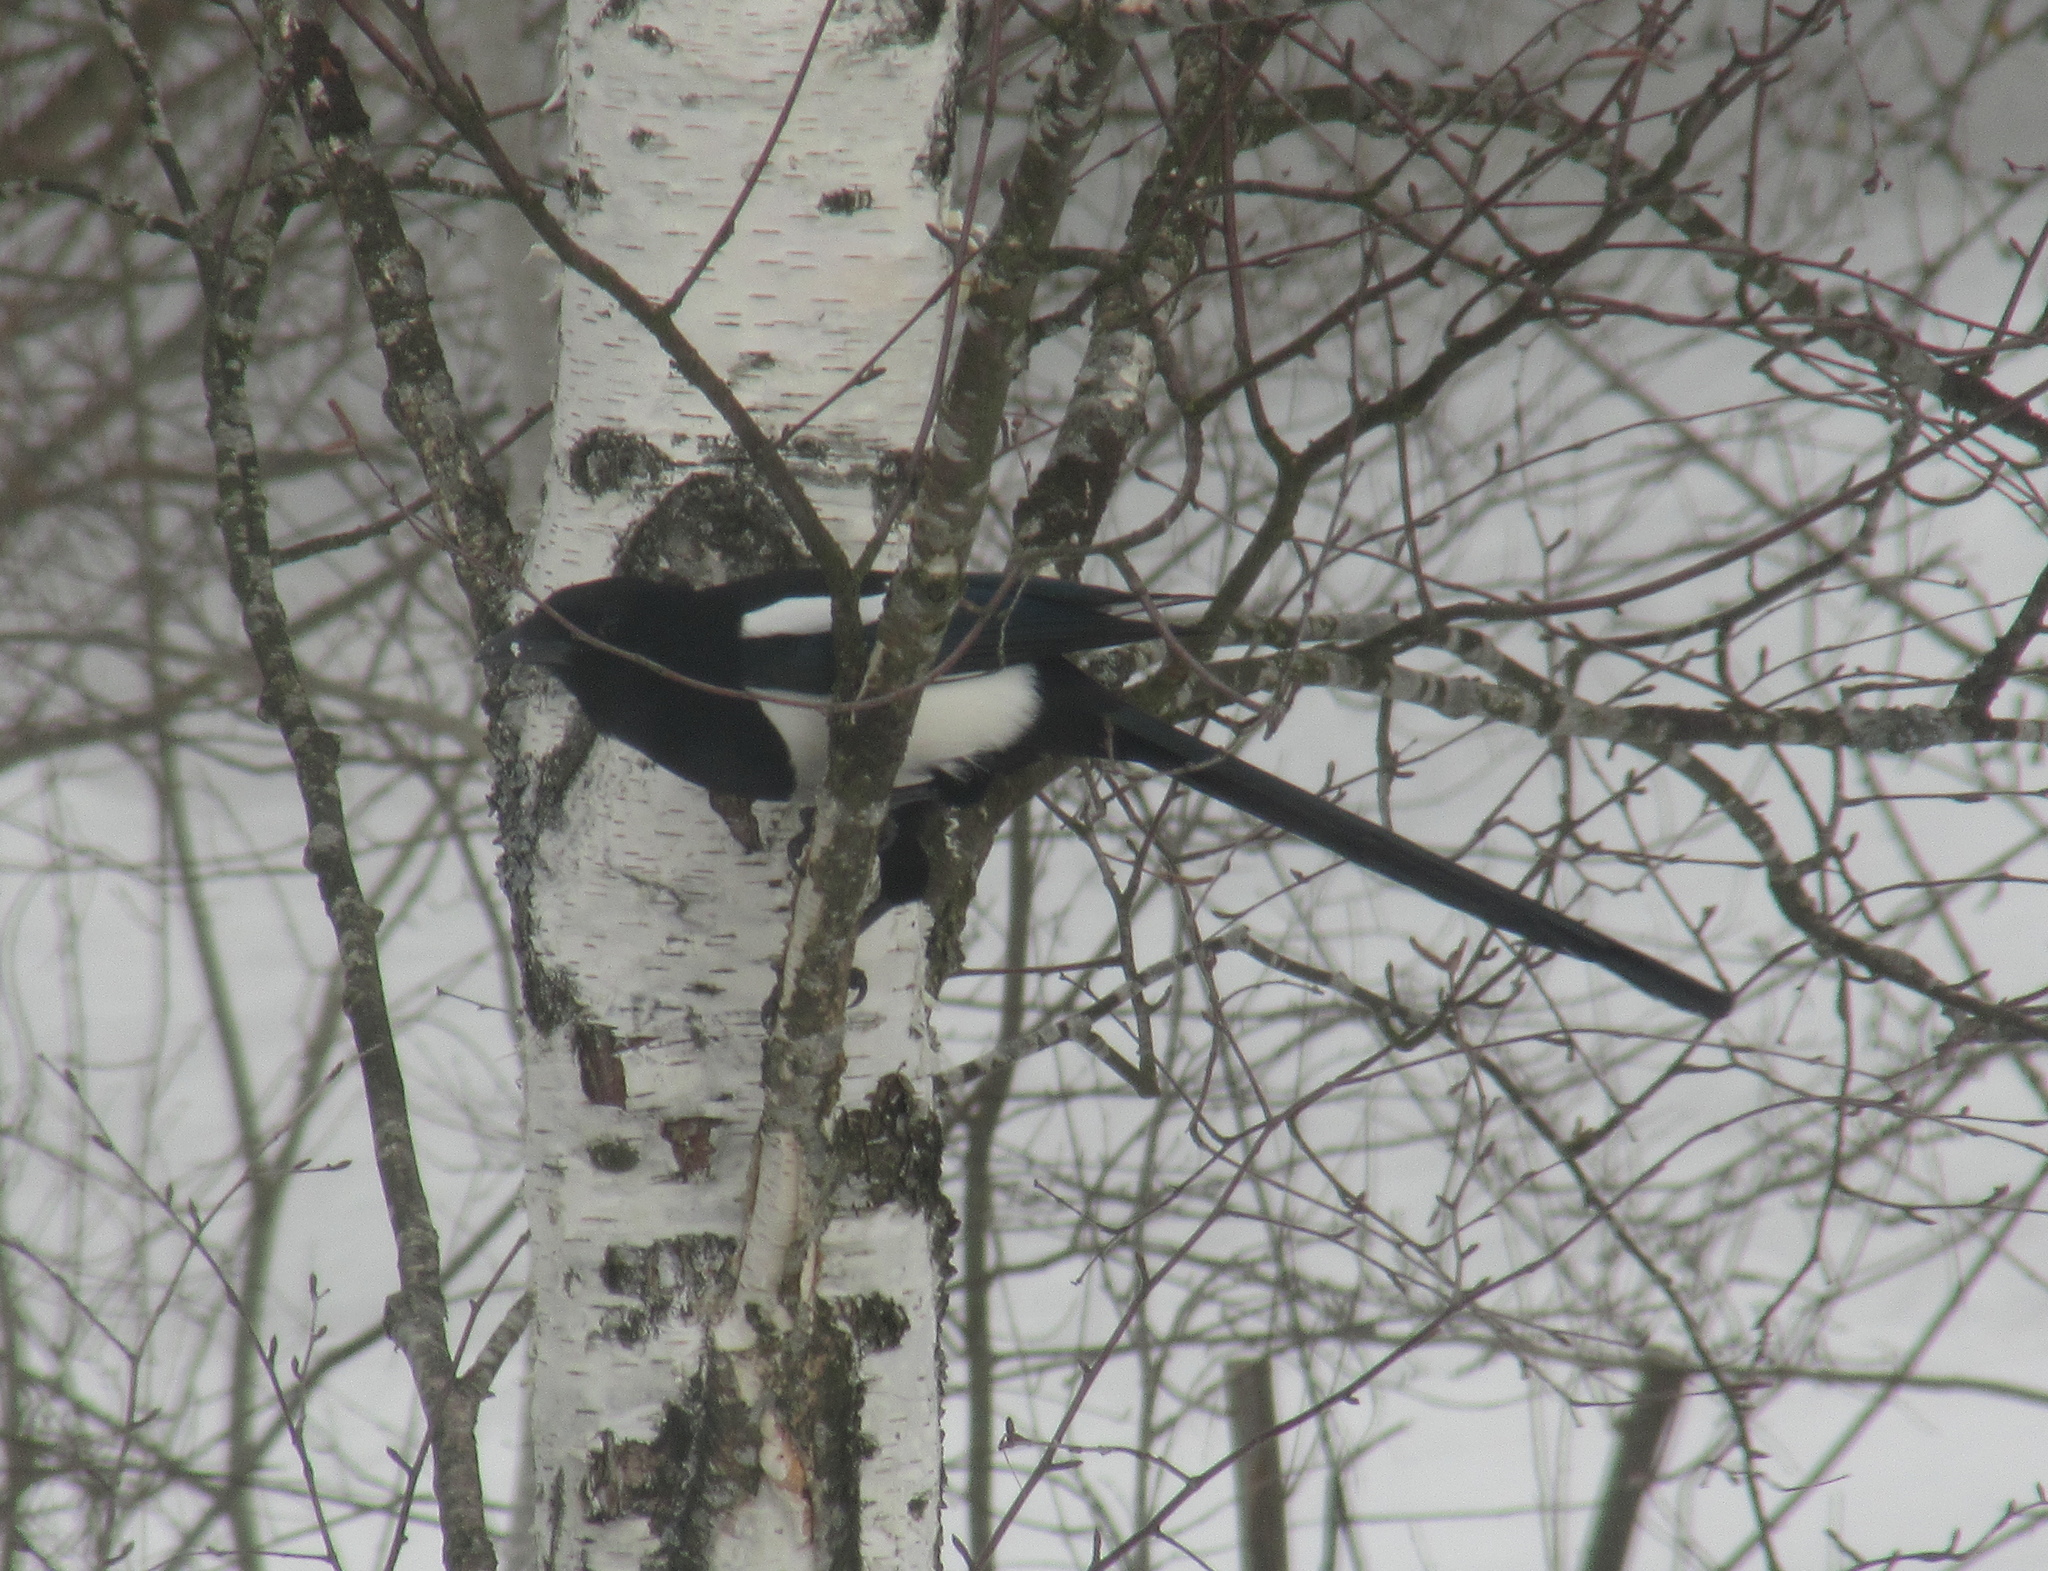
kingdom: Animalia
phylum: Chordata
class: Aves
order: Passeriformes
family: Corvidae
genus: Pica
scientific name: Pica pica
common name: Eurasian magpie
